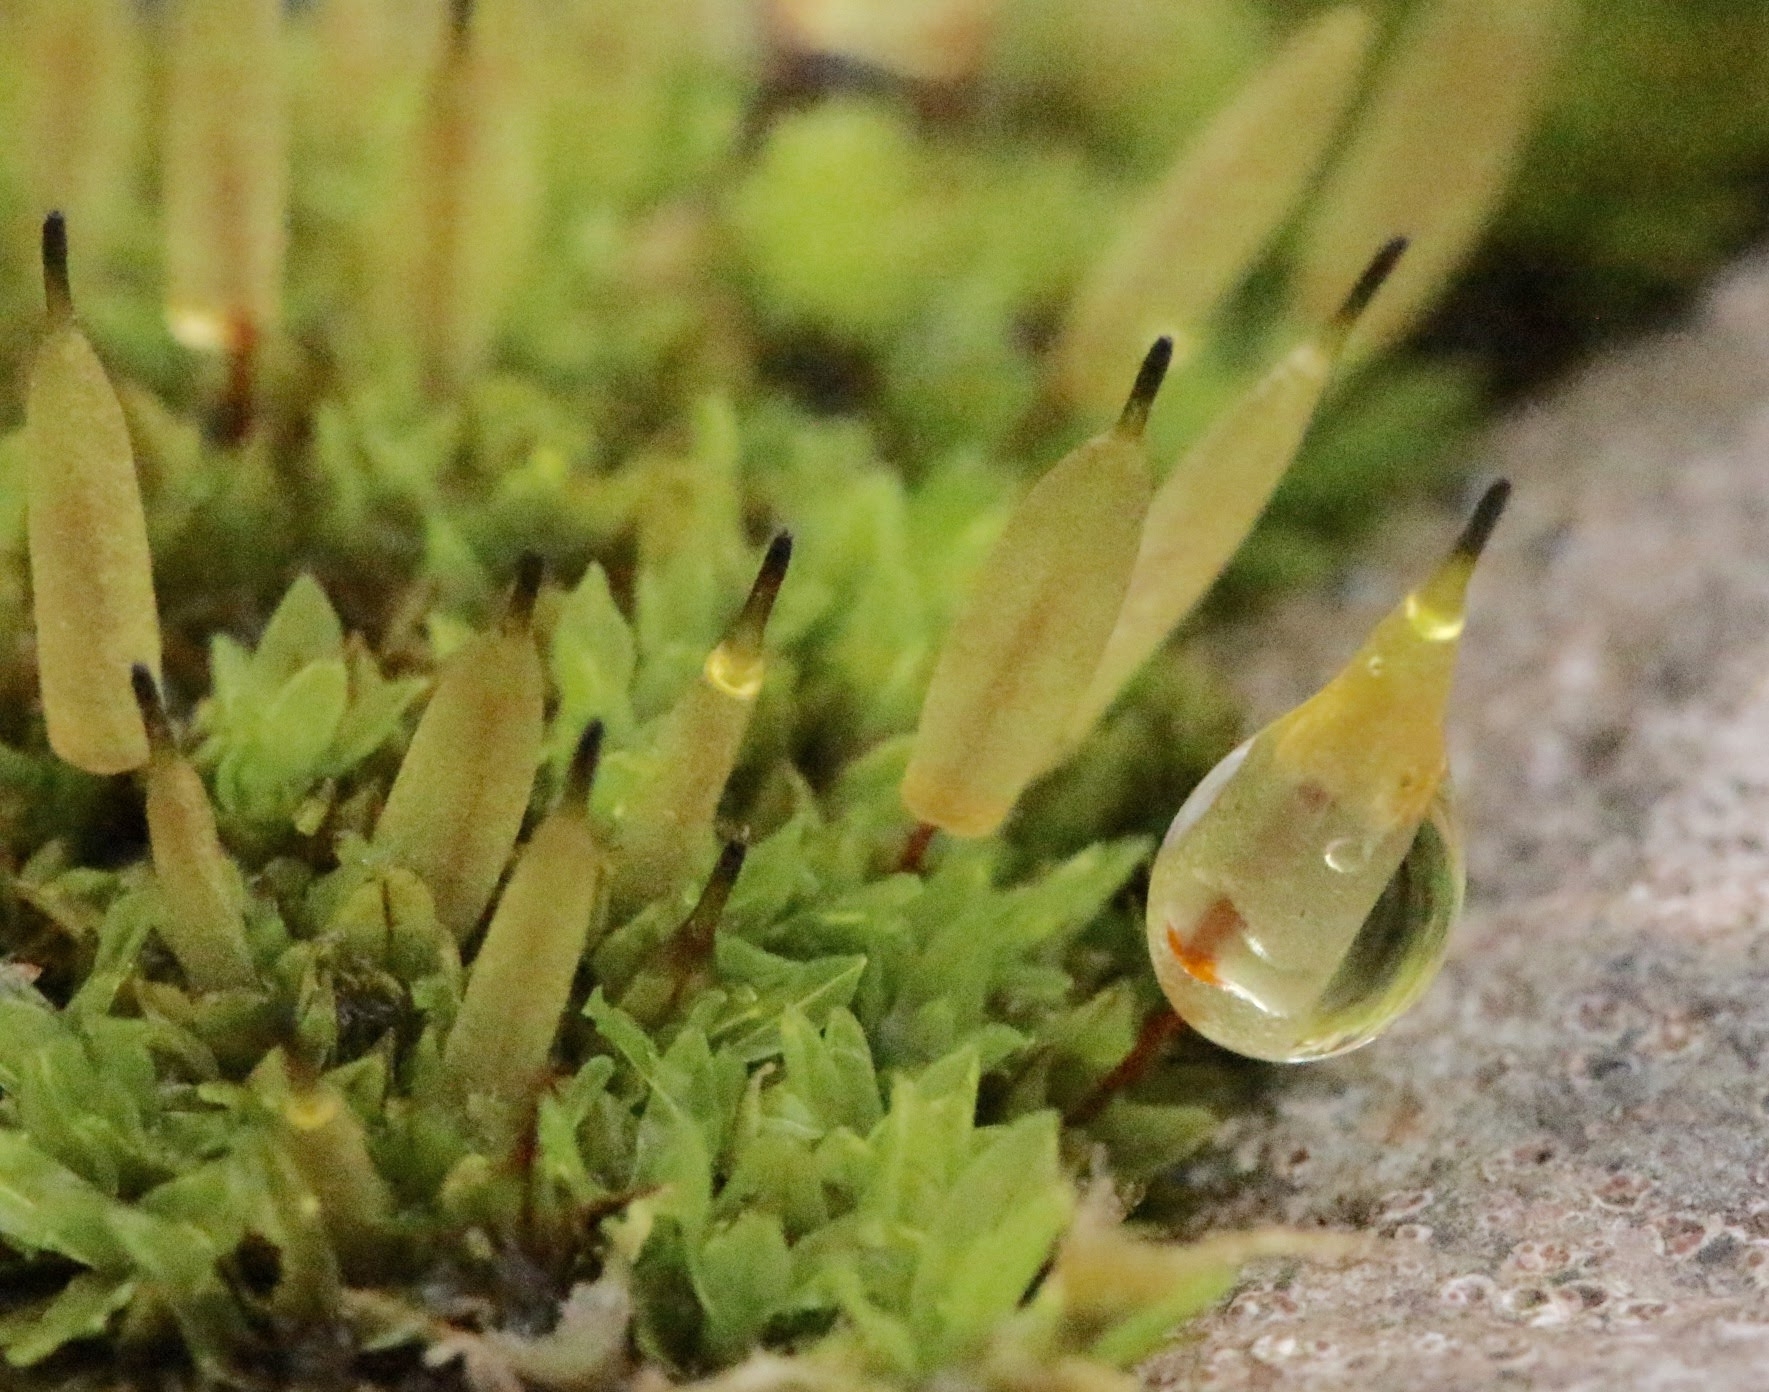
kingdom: Plantae
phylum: Bryophyta
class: Bryopsida
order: Encalyptales
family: Encalyptaceae
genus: Encalypta
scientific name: Encalypta vulgaris
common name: Common extinguisher-moss
